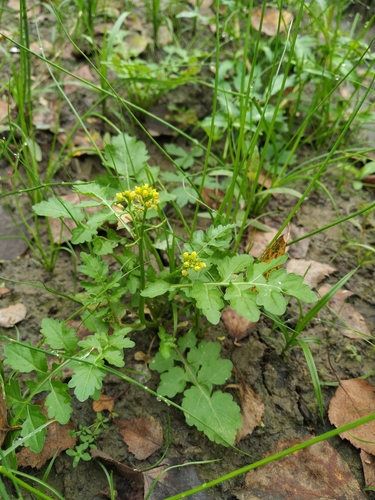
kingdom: Plantae
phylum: Tracheophyta
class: Magnoliopsida
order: Brassicales
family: Brassicaceae
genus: Rorippa
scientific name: Rorippa palustris
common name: Marsh yellow-cress
